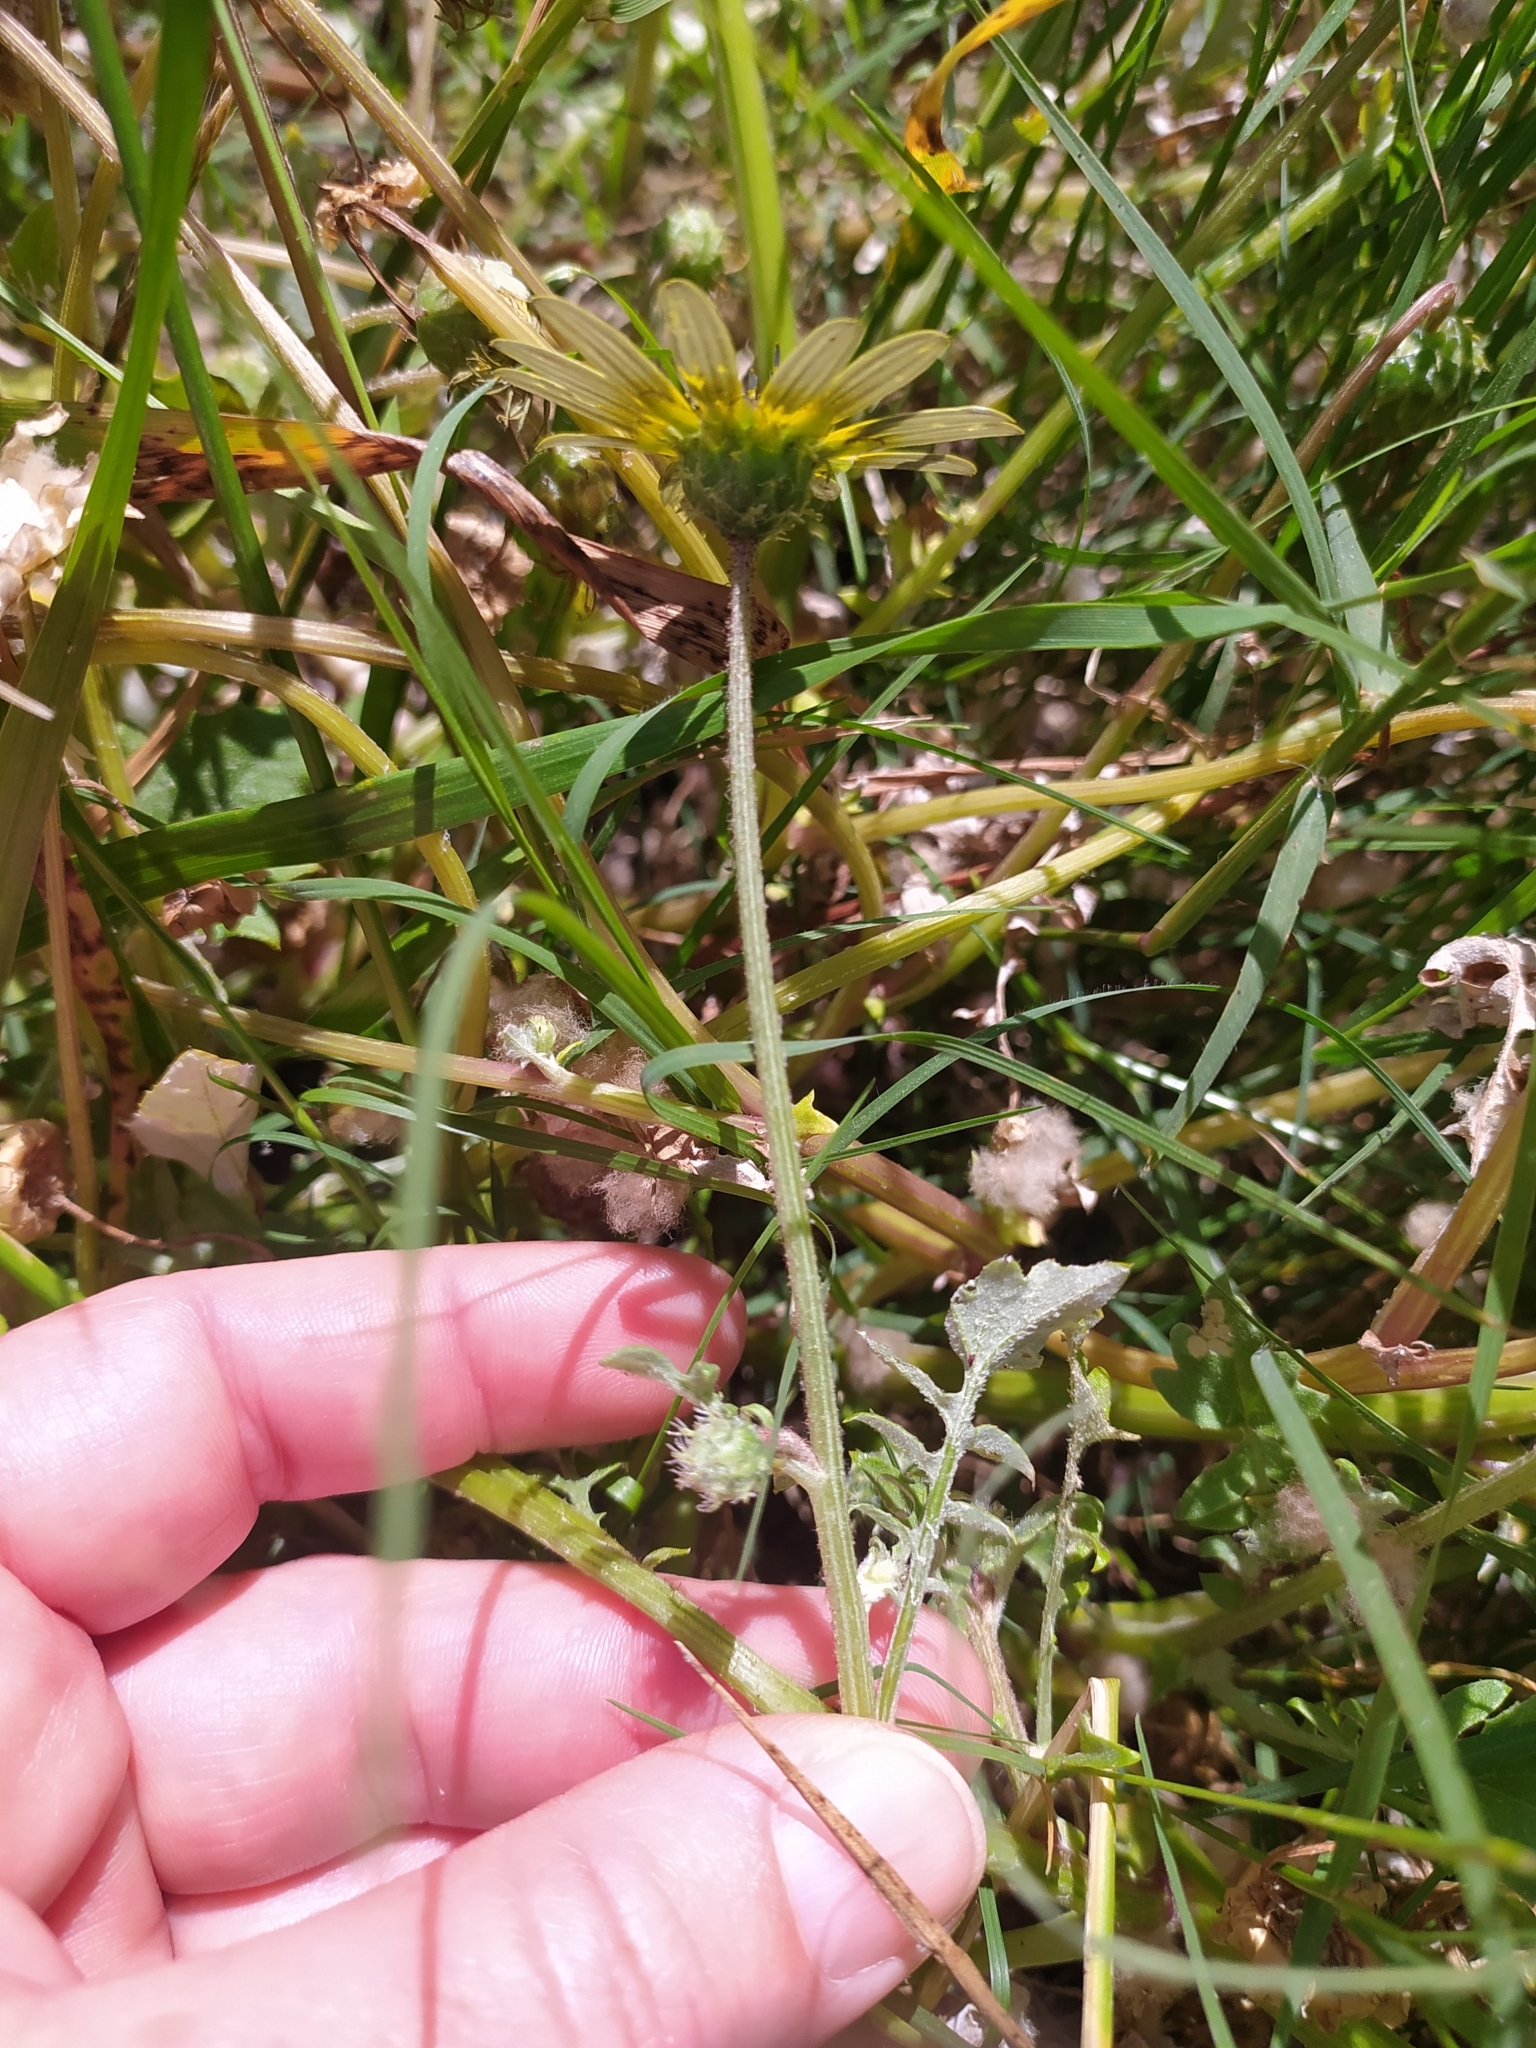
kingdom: Plantae
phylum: Tracheophyta
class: Magnoliopsida
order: Asterales
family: Asteraceae
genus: Arctotheca
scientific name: Arctotheca calendula
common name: Capeweed
